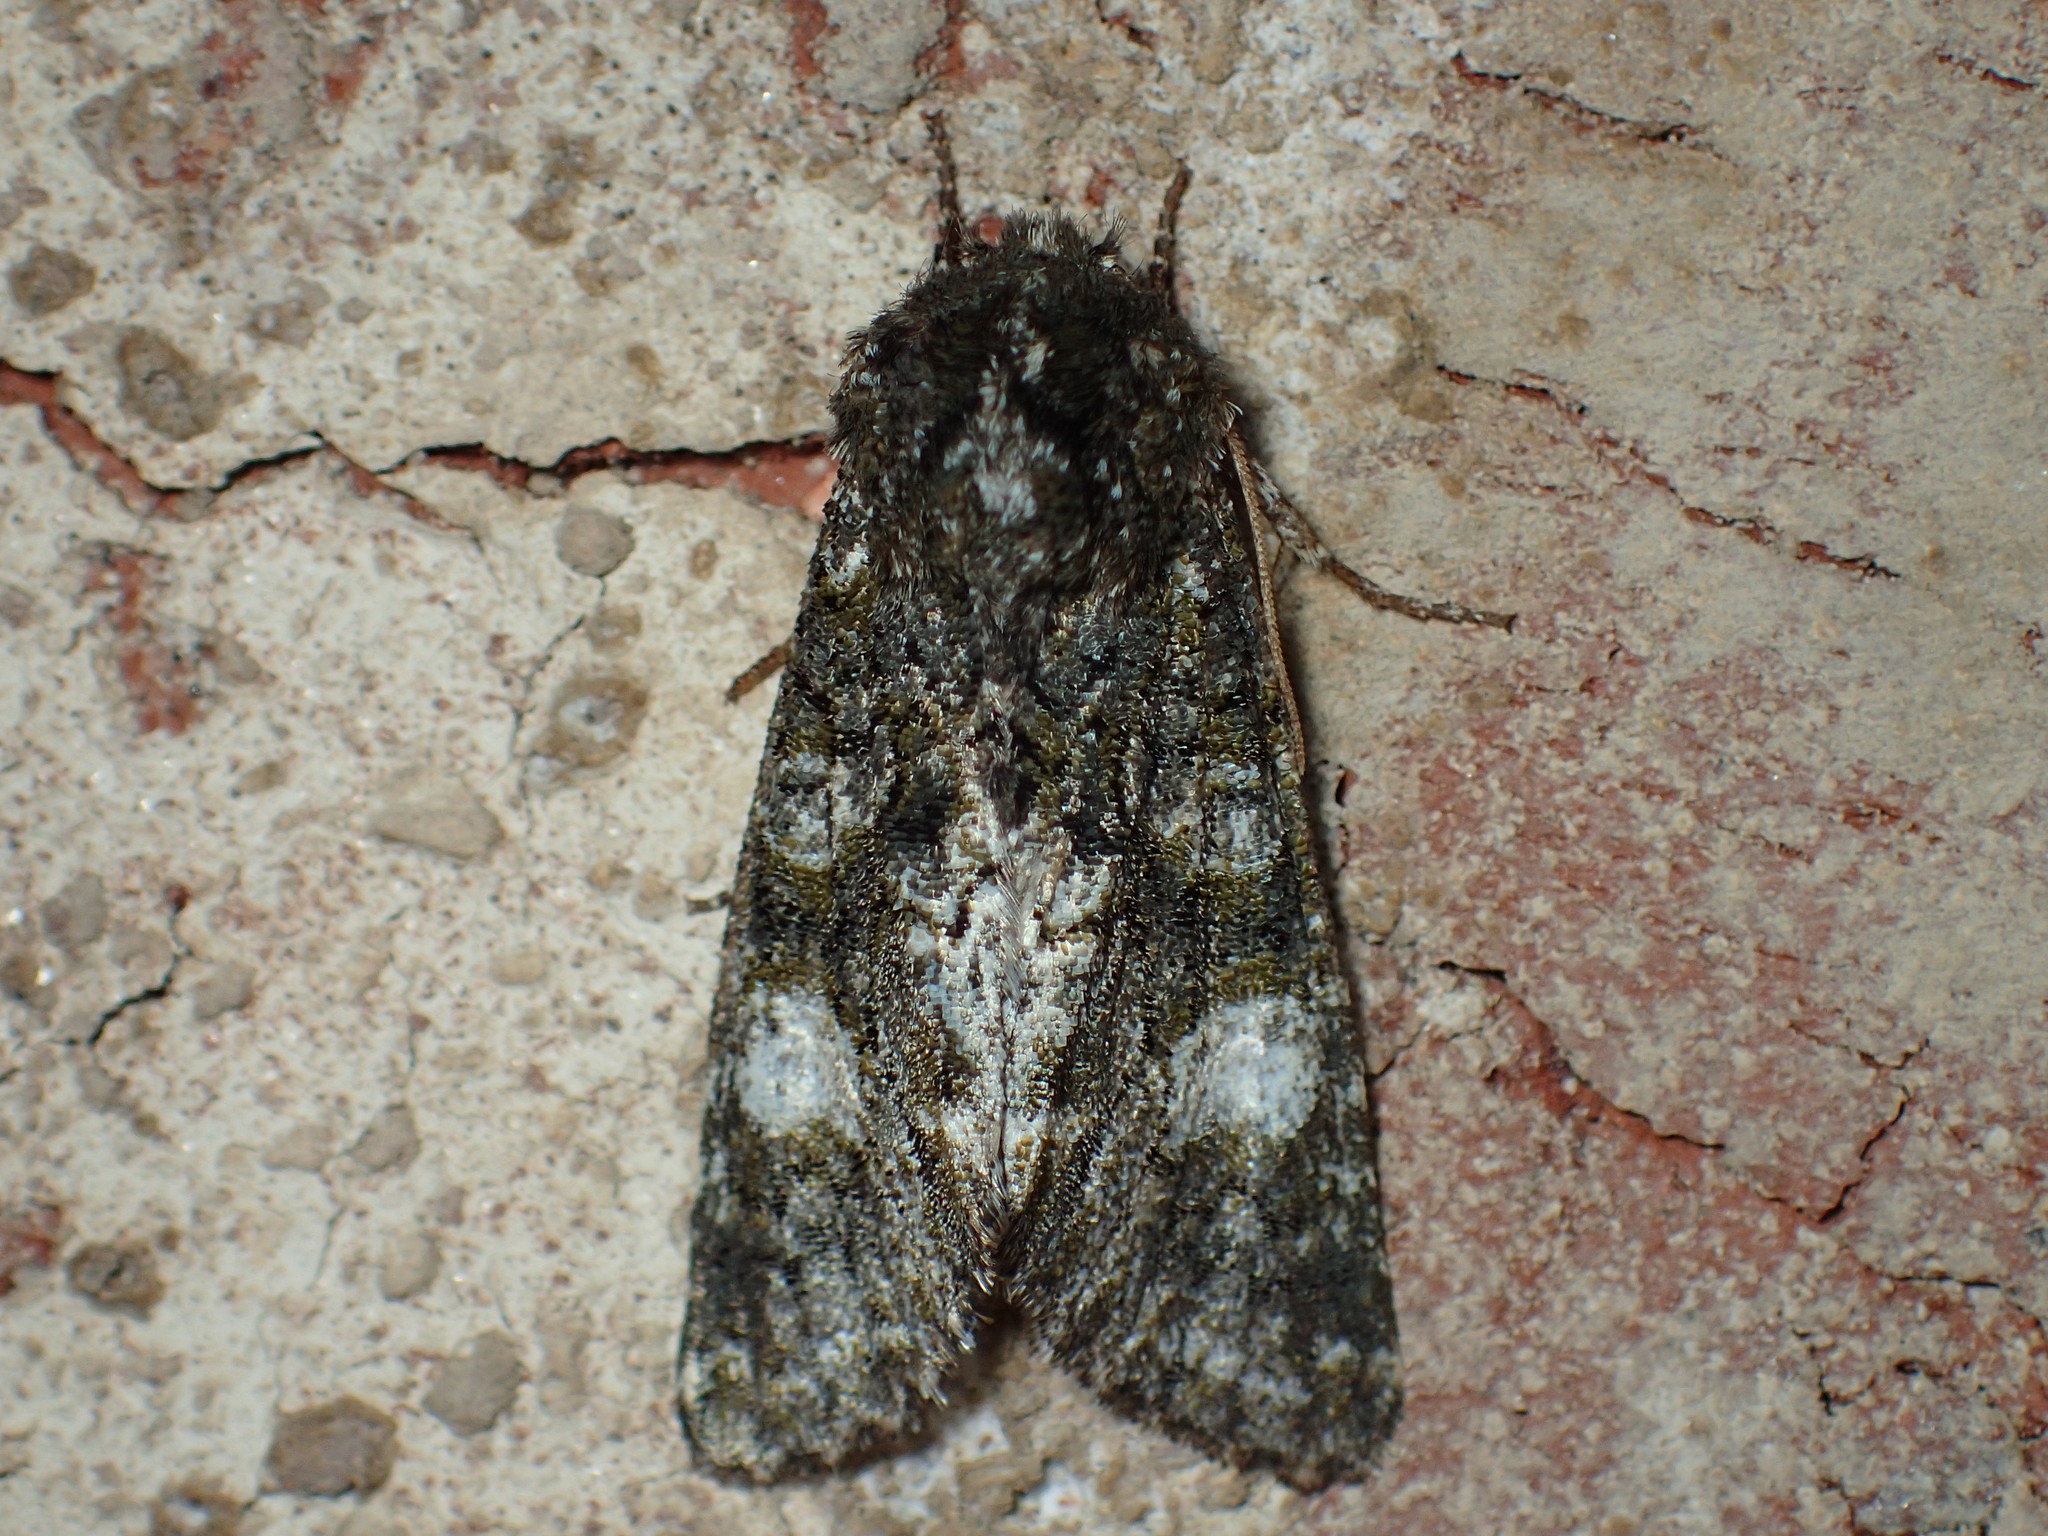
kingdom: Animalia
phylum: Arthropoda
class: Insecta
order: Lepidoptera
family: Noctuidae
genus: Psaphida
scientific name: Psaphida grotei
